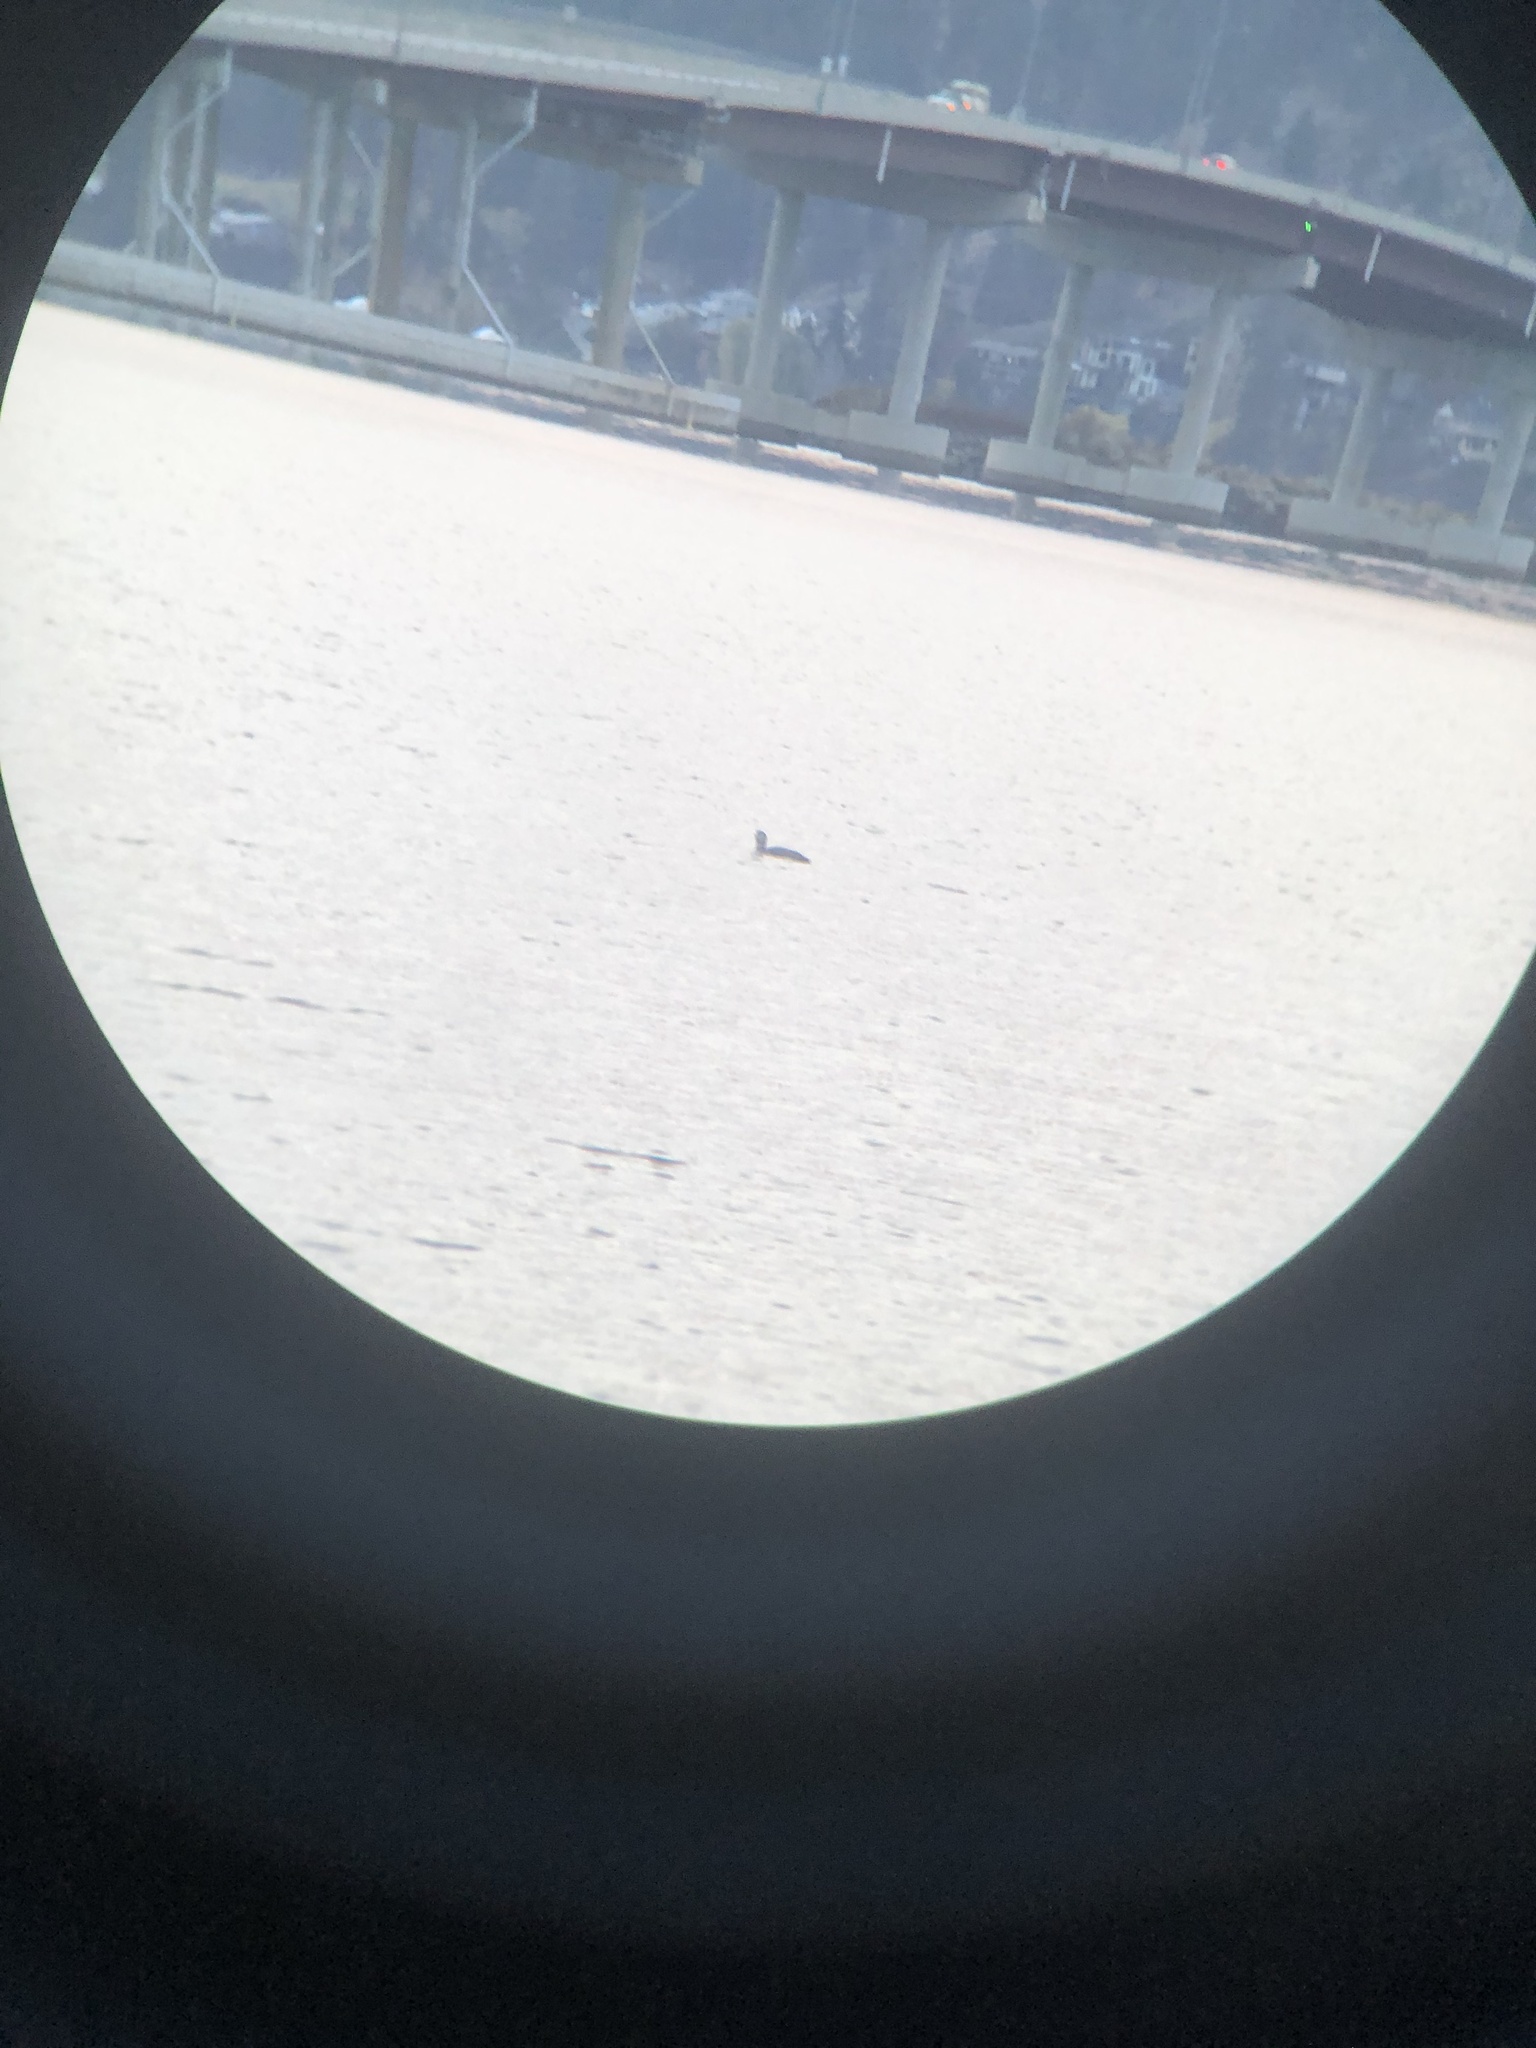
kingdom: Animalia
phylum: Chordata
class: Aves
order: Gaviiformes
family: Gaviidae
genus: Gavia
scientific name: Gavia adamsii
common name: Yellow-billed loon
